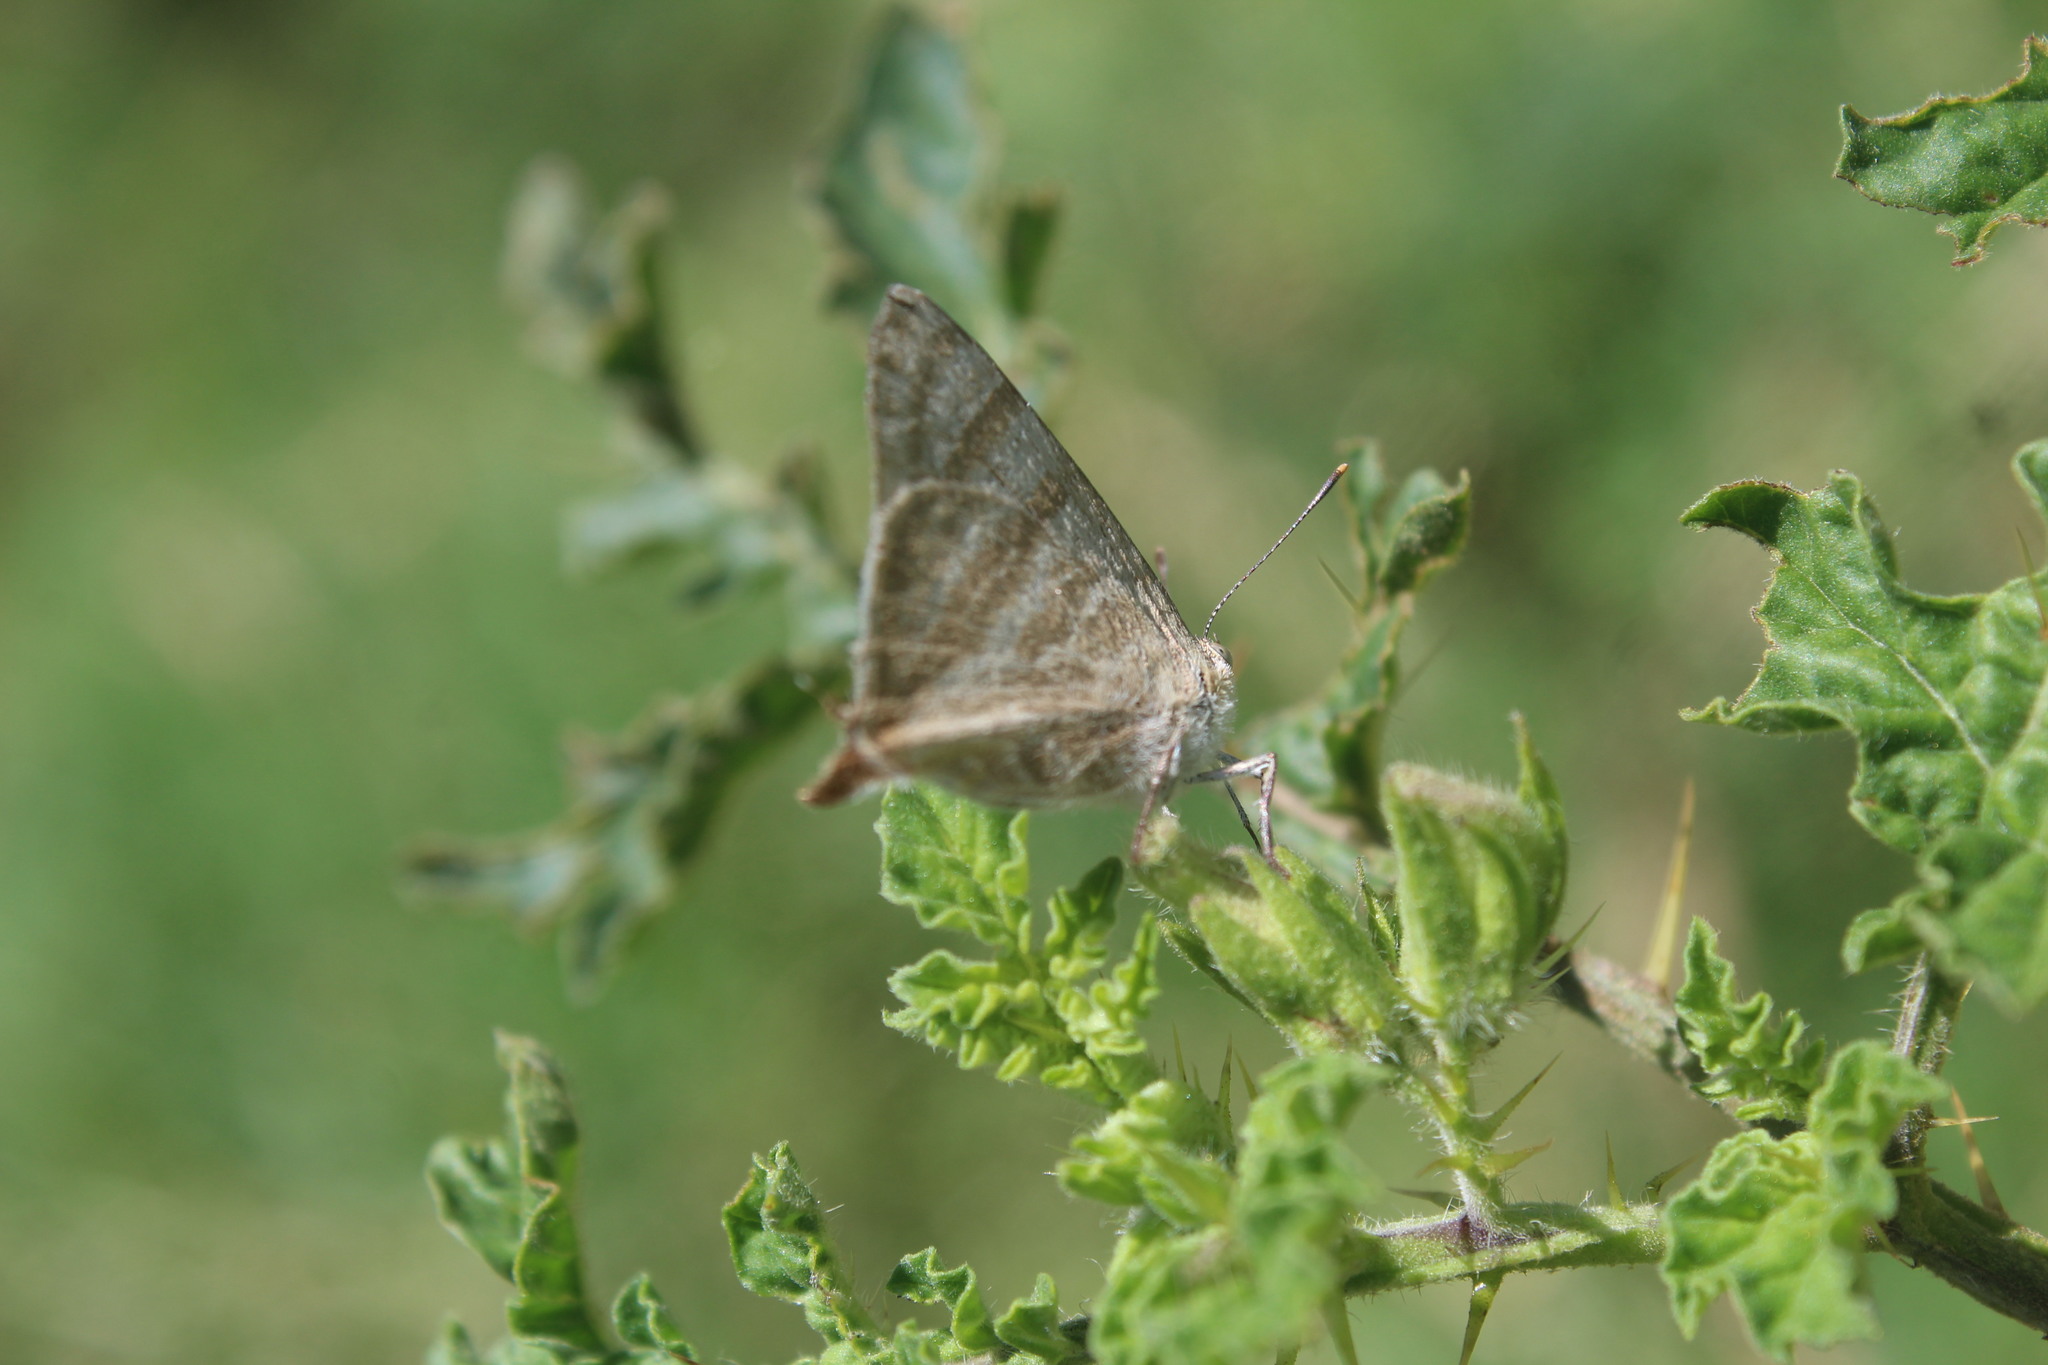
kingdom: Animalia
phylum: Arthropoda
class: Insecta
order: Lepidoptera
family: Lycaenidae
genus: Dolymorpha
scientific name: Dolymorpha jada
